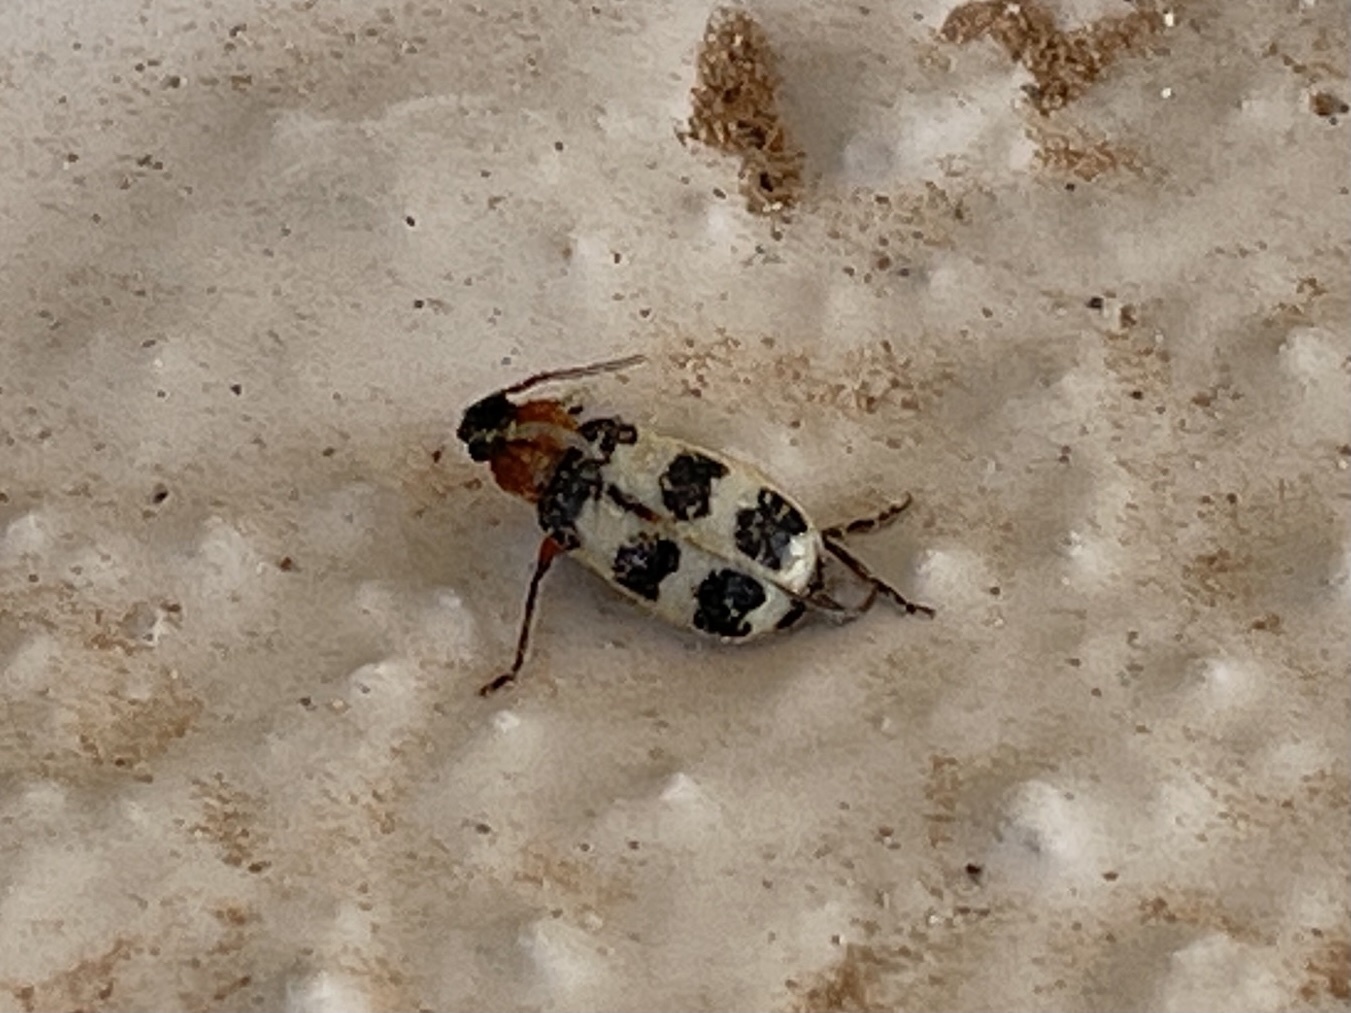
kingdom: Animalia
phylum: Arthropoda
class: Insecta
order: Coleoptera
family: Chrysomelidae
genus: Paranapiacaba
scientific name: Paranapiacaba tricincta
